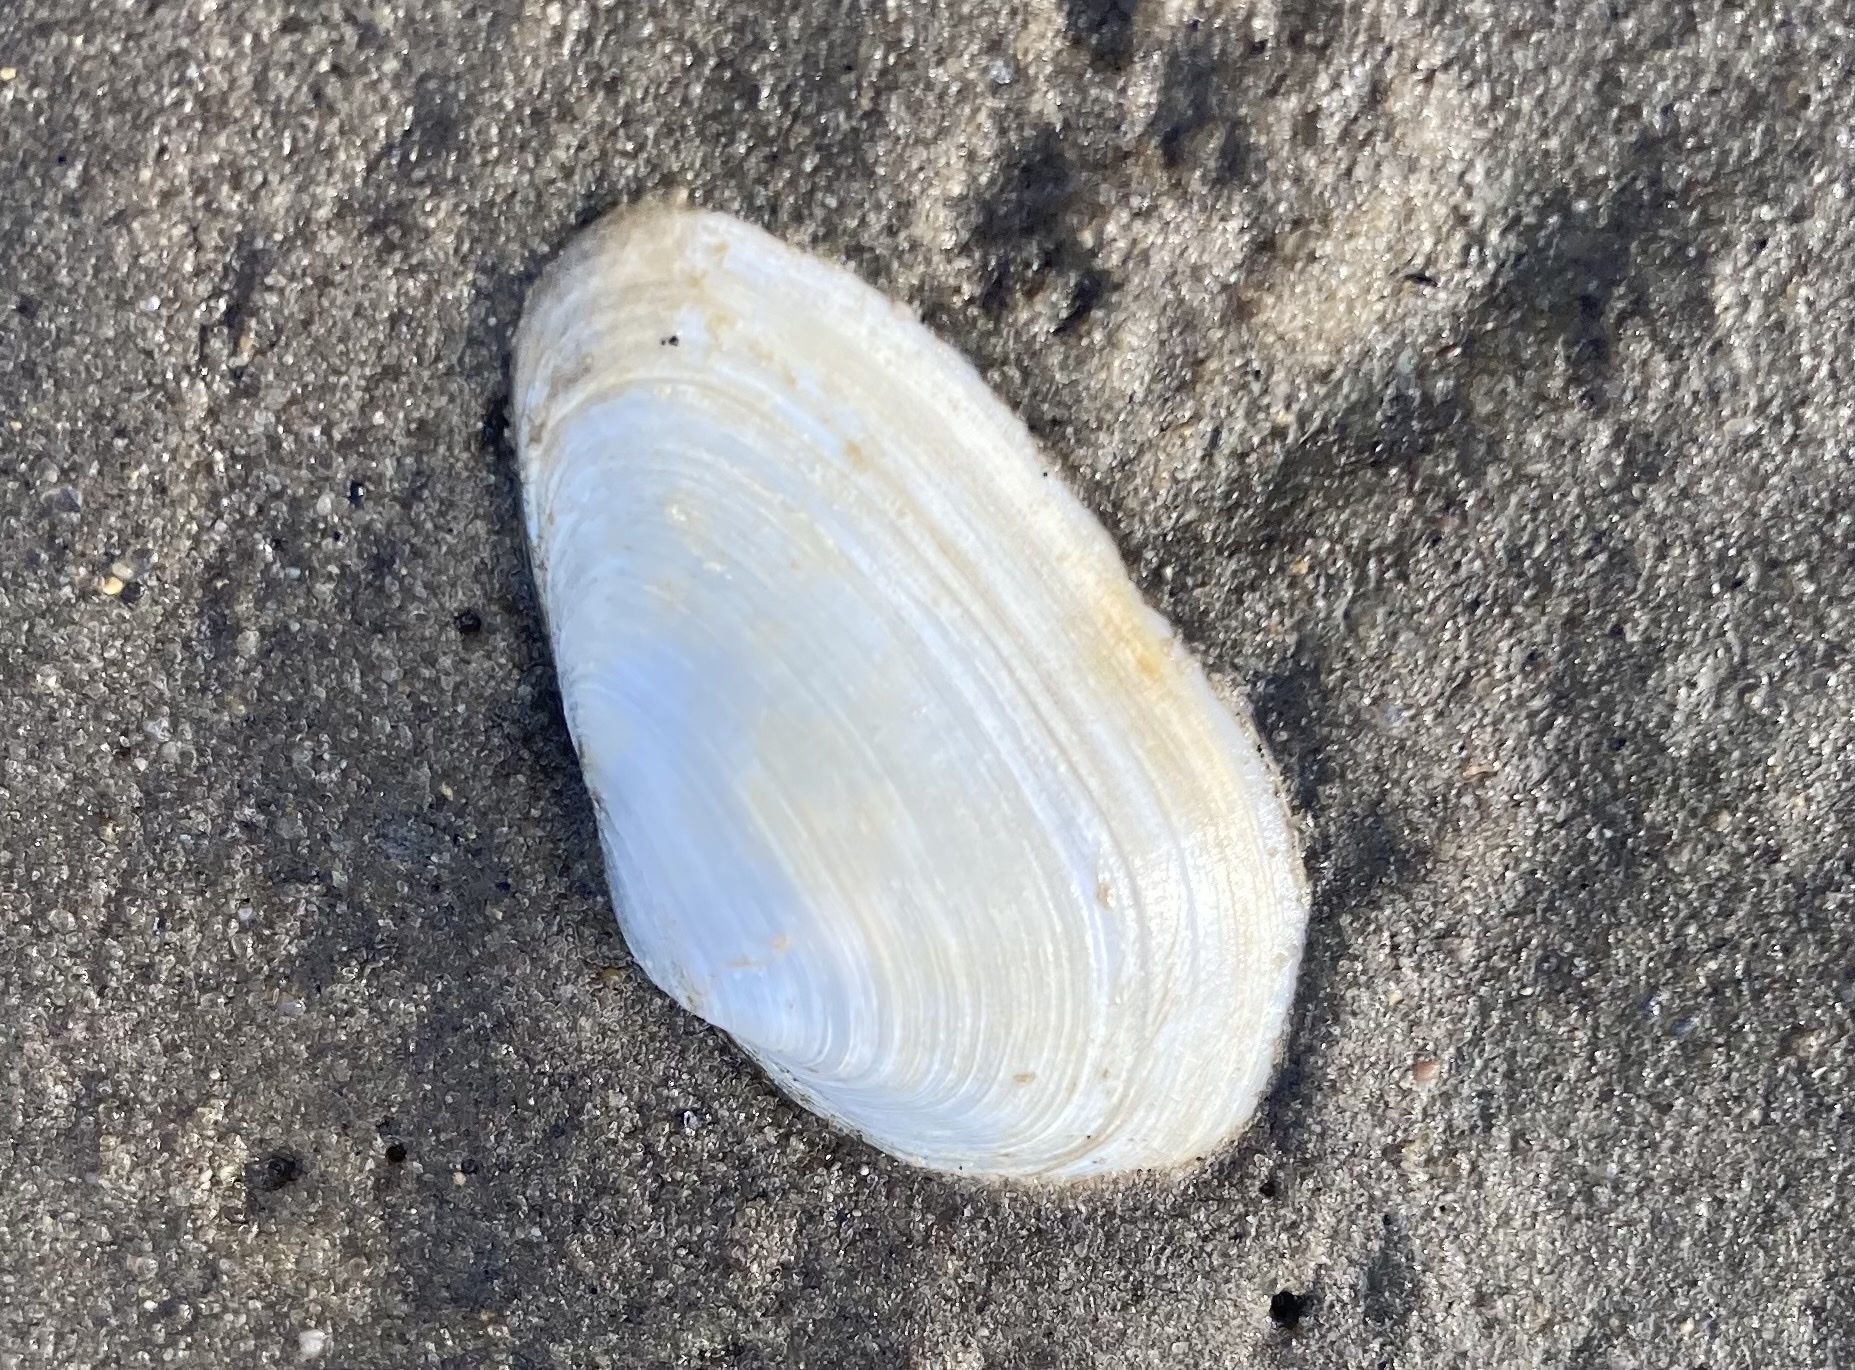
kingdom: Animalia
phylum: Mollusca
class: Bivalvia
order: Myida
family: Myidae
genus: Mya
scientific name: Mya arenaria
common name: Soft-shelled clam
